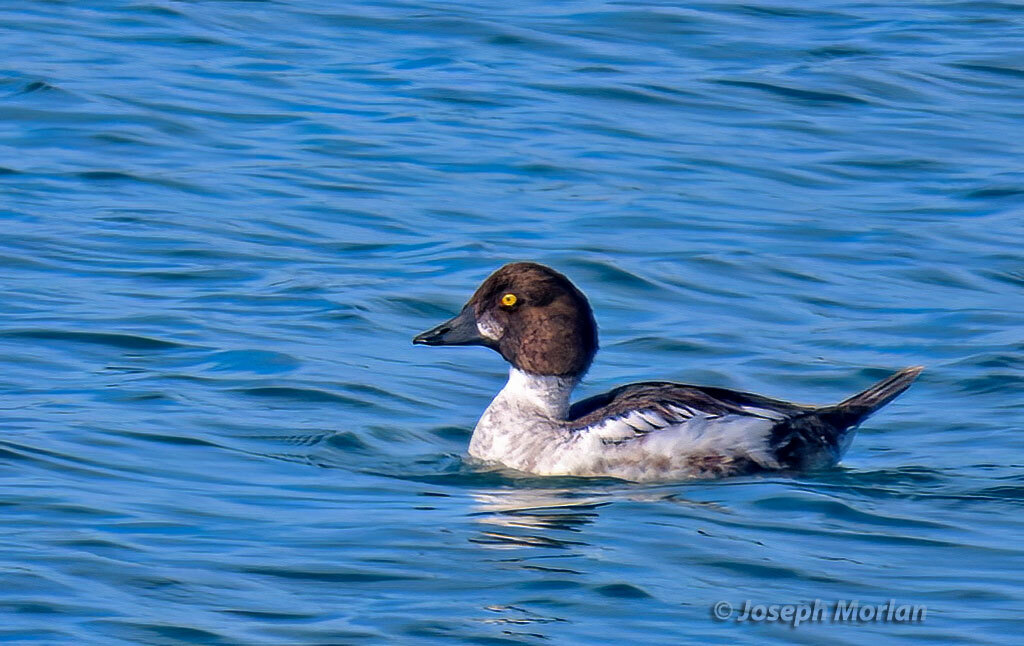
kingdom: Animalia
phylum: Chordata
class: Aves
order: Anseriformes
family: Anatidae
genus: Bucephala
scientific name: Bucephala clangula
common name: Common goldeneye
